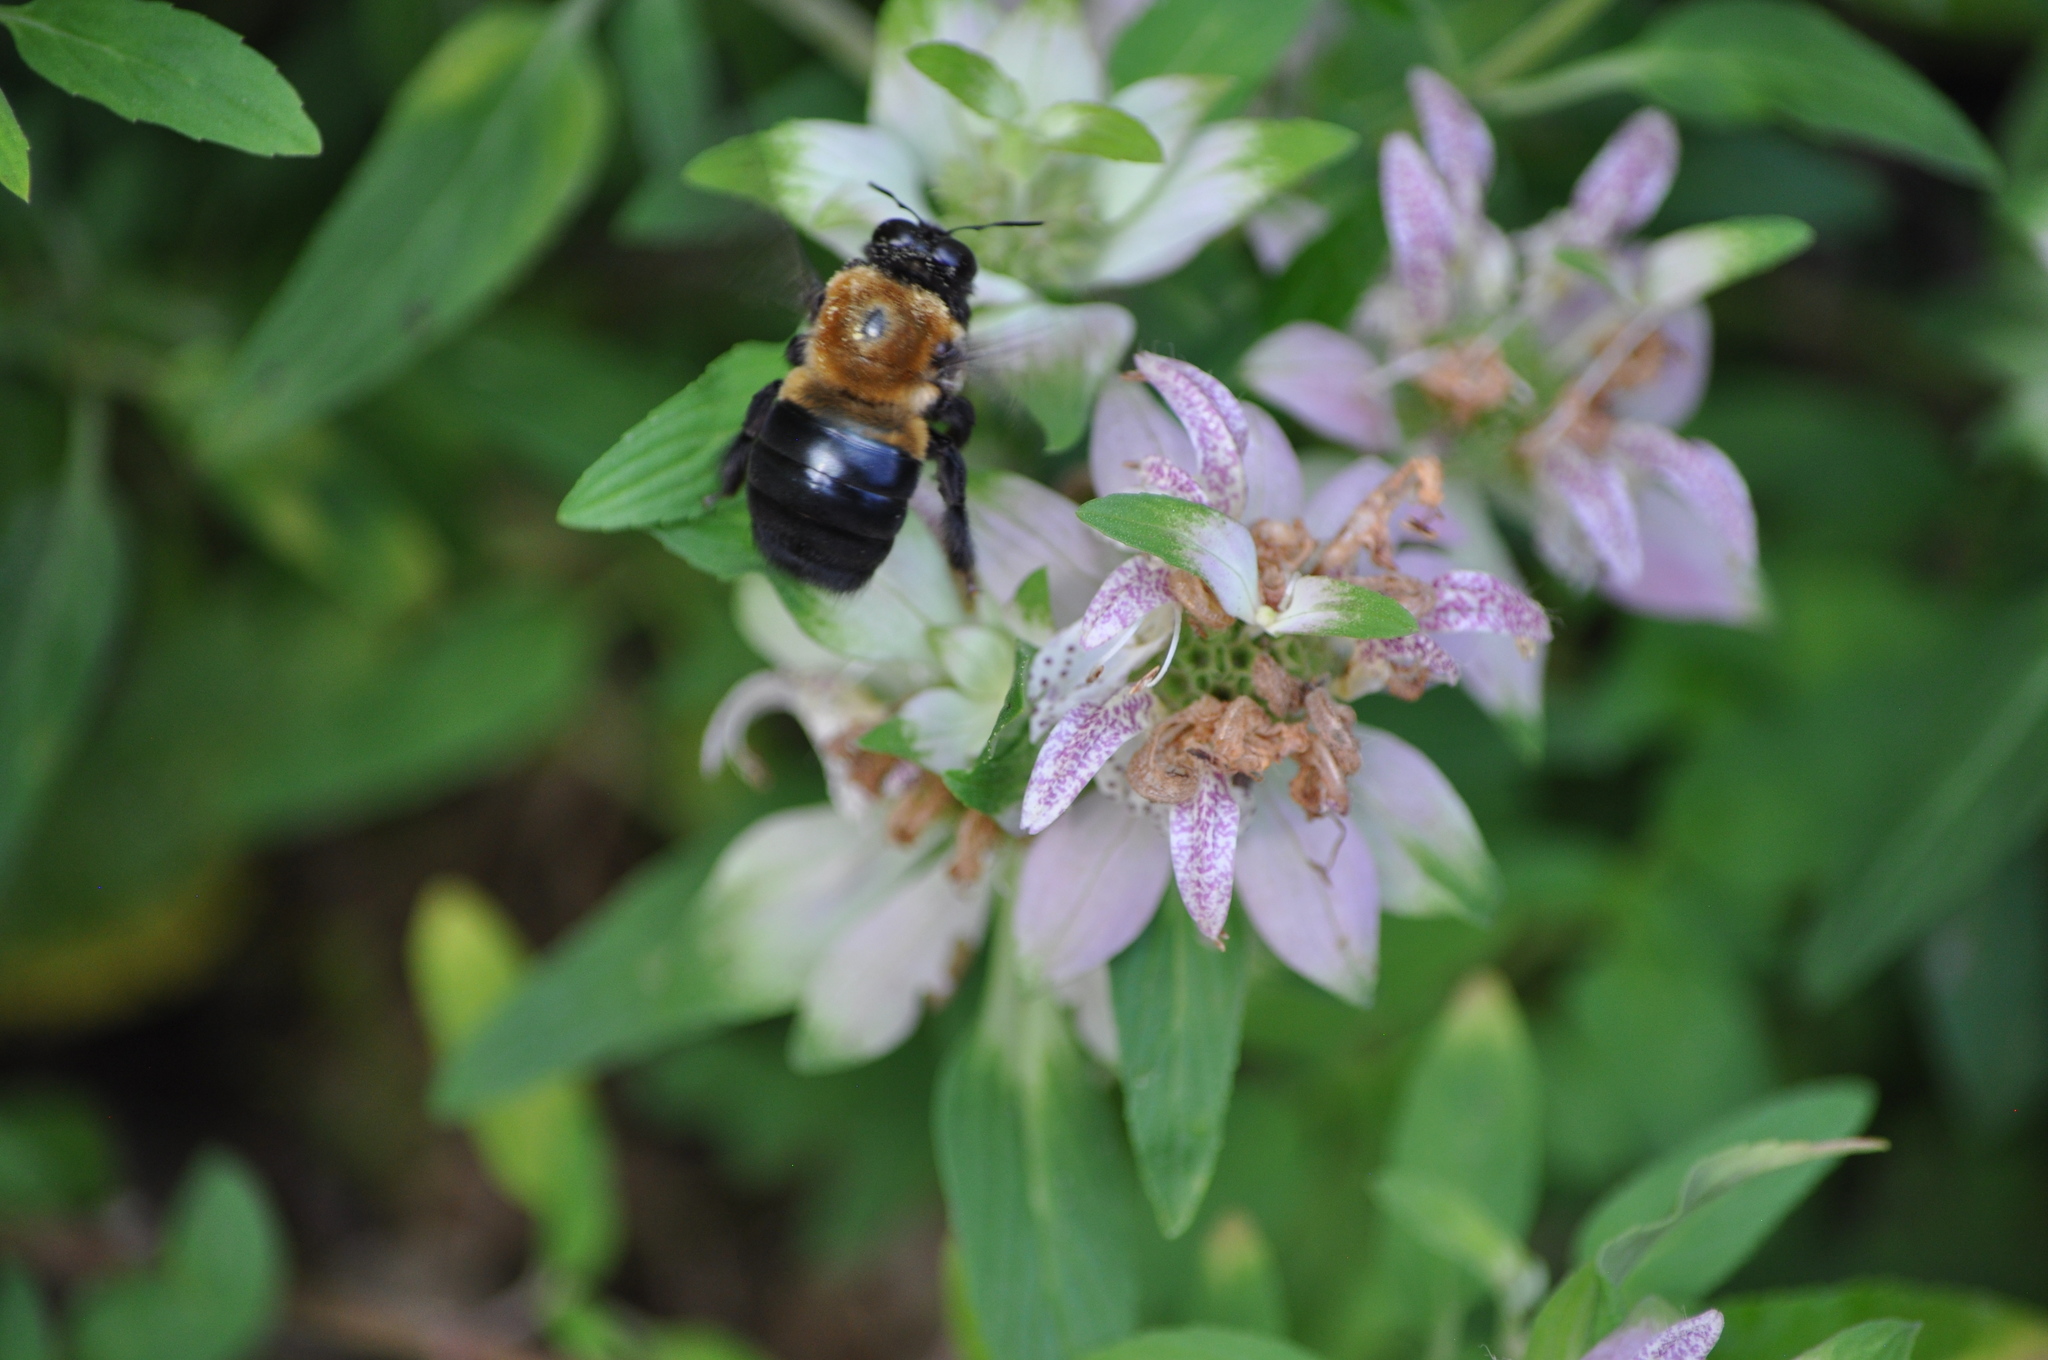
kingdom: Animalia
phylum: Arthropoda
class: Insecta
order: Hymenoptera
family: Apidae
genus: Xylocopa
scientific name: Xylocopa virginica
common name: Carpenter bee
